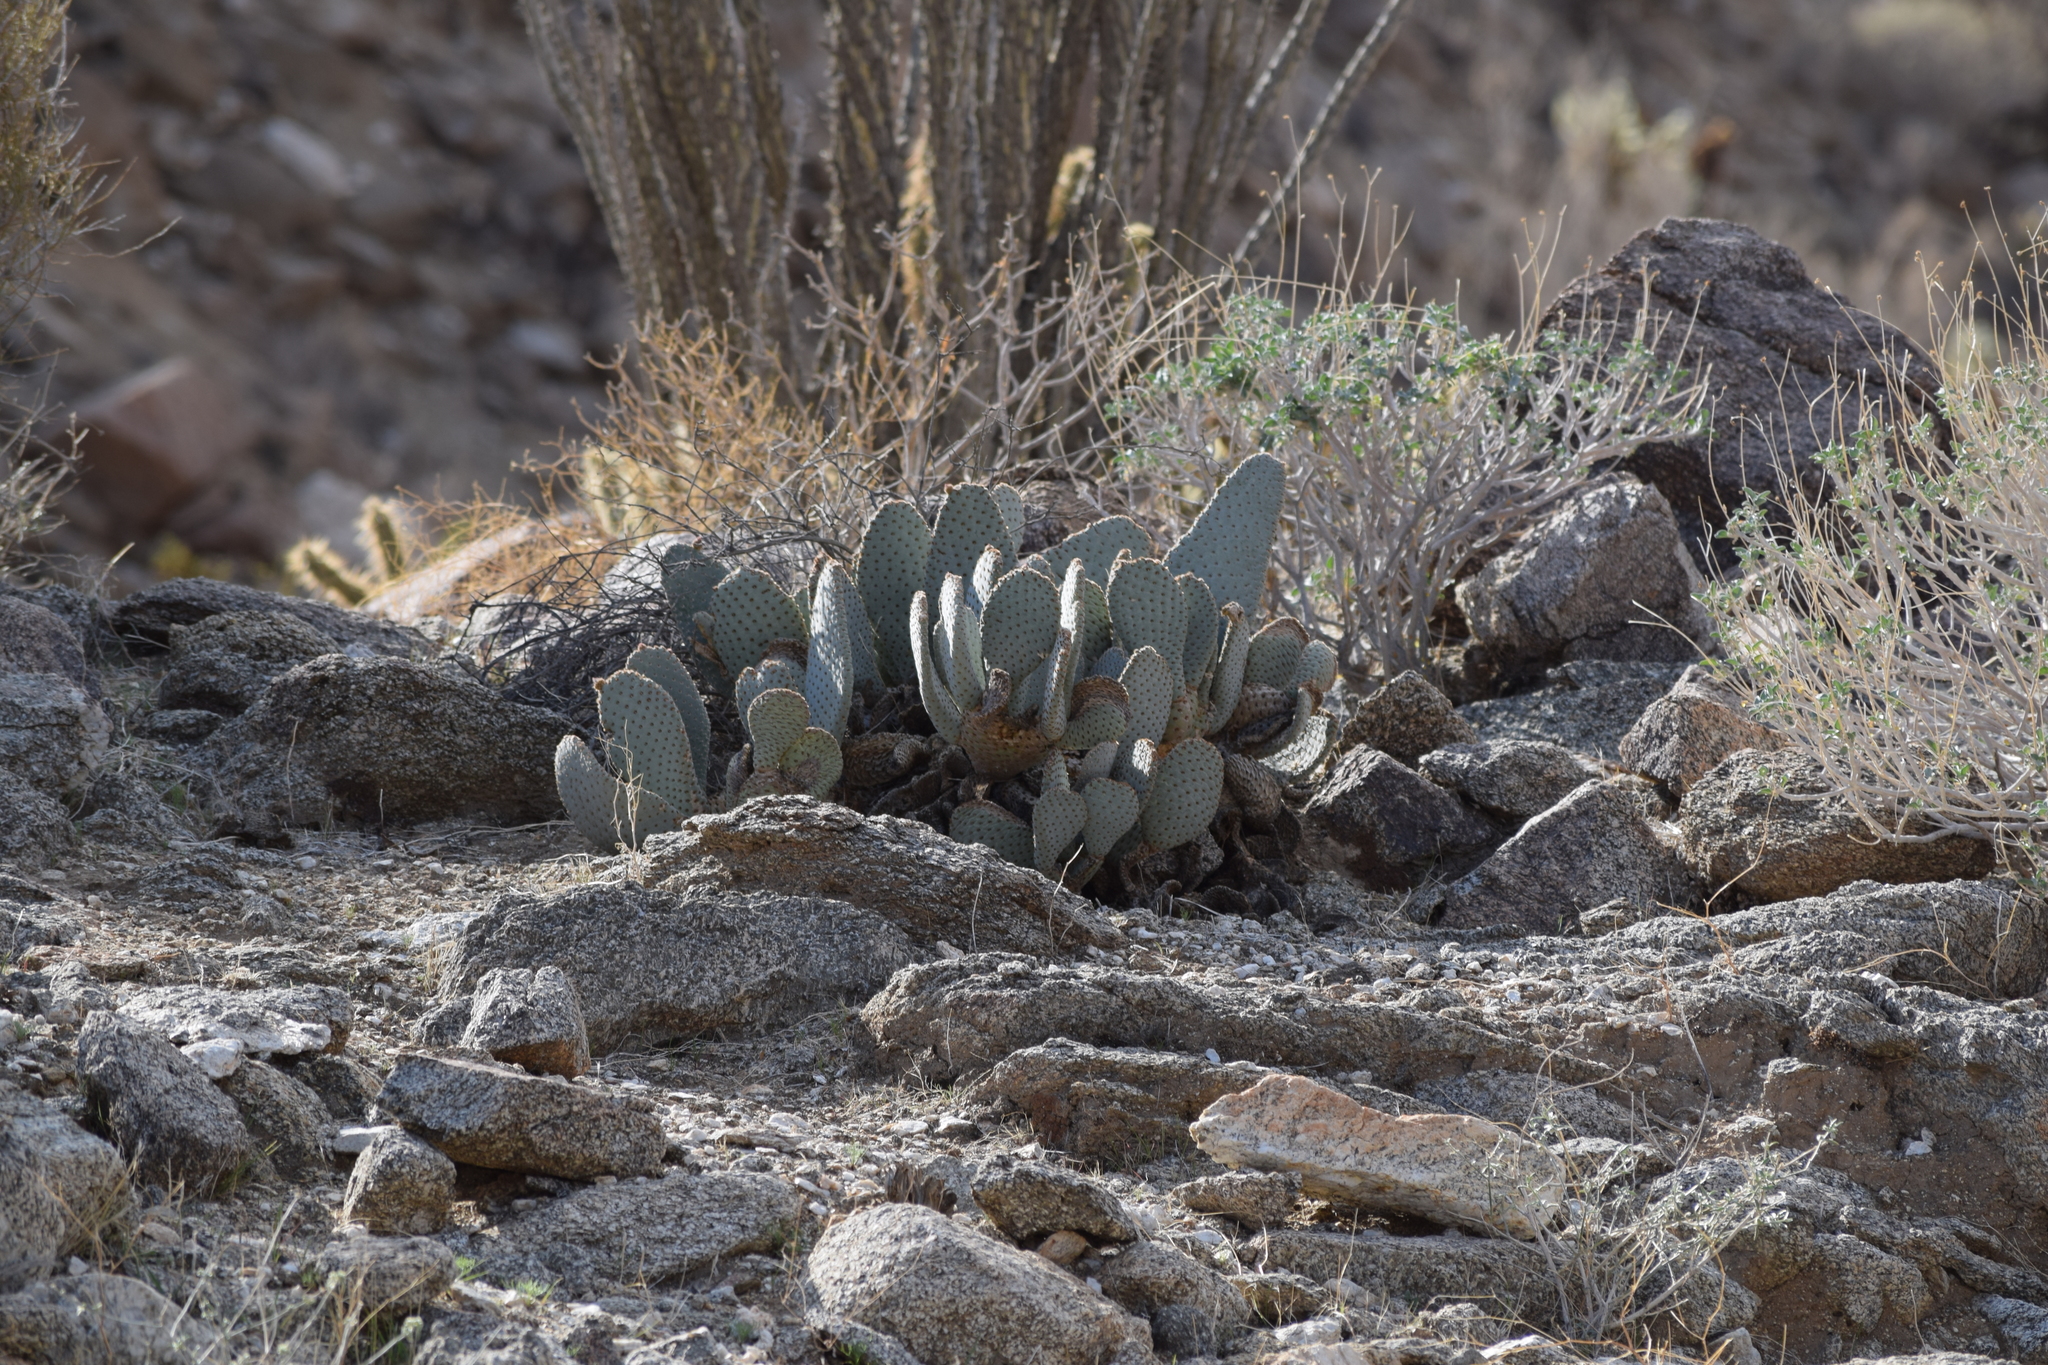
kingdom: Plantae
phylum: Tracheophyta
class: Magnoliopsida
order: Caryophyllales
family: Cactaceae
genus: Opuntia
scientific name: Opuntia basilaris
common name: Beavertail prickly-pear
